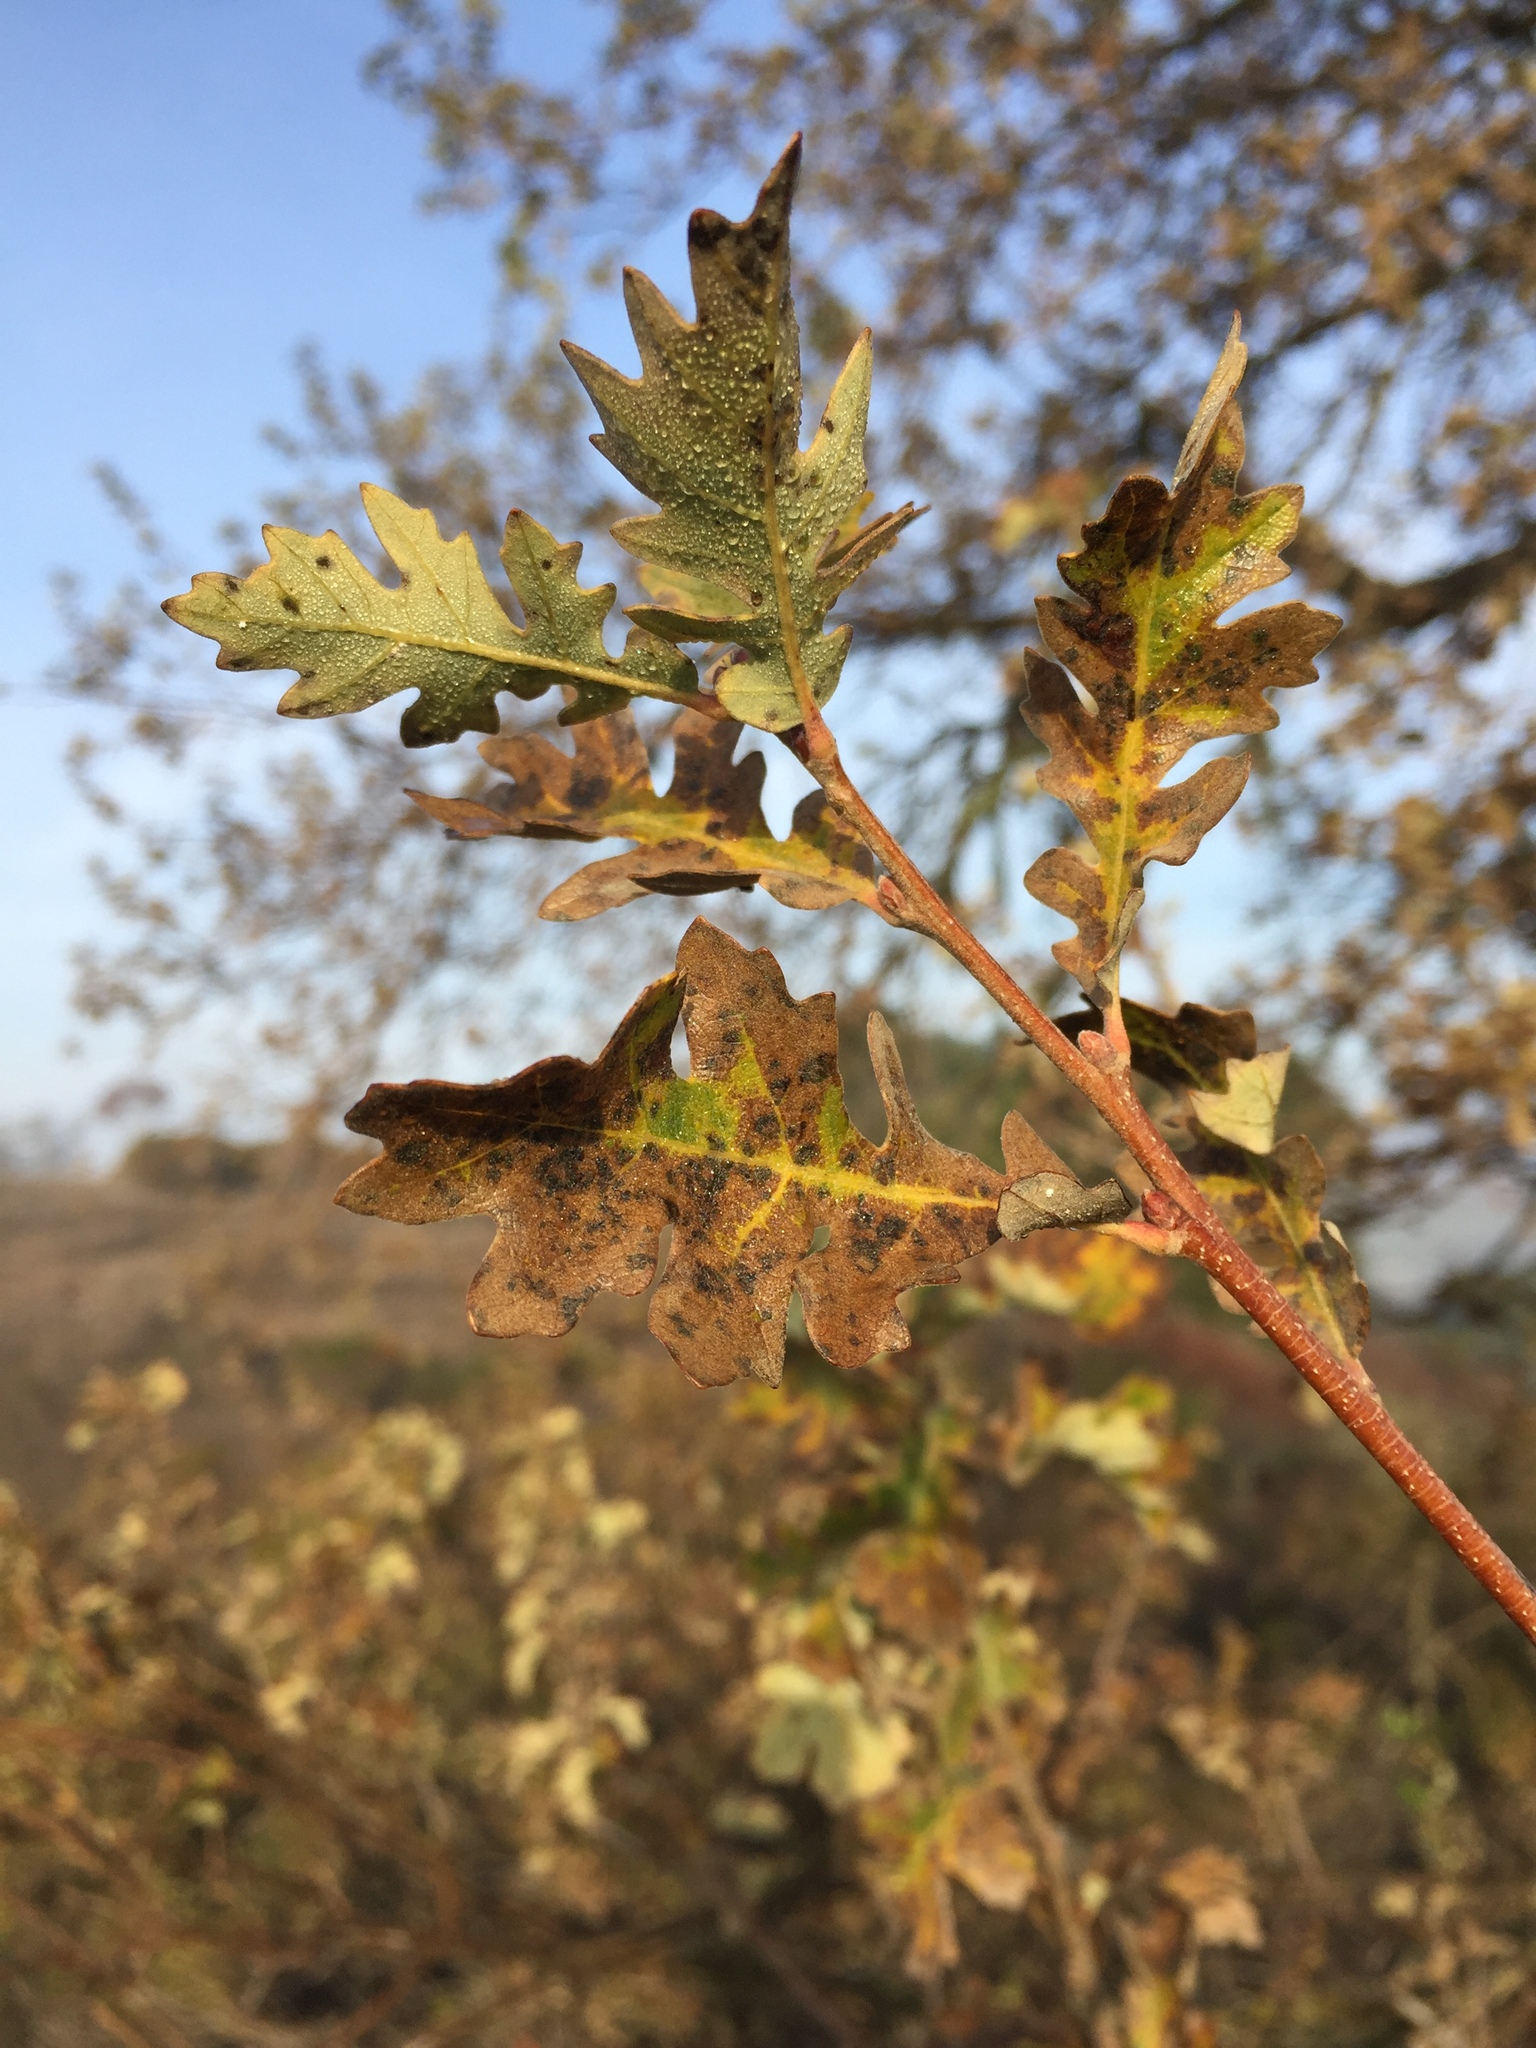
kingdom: Plantae
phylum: Tracheophyta
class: Magnoliopsida
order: Fagales
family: Fagaceae
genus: Quercus
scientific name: Quercus lobata
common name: Valley oak
